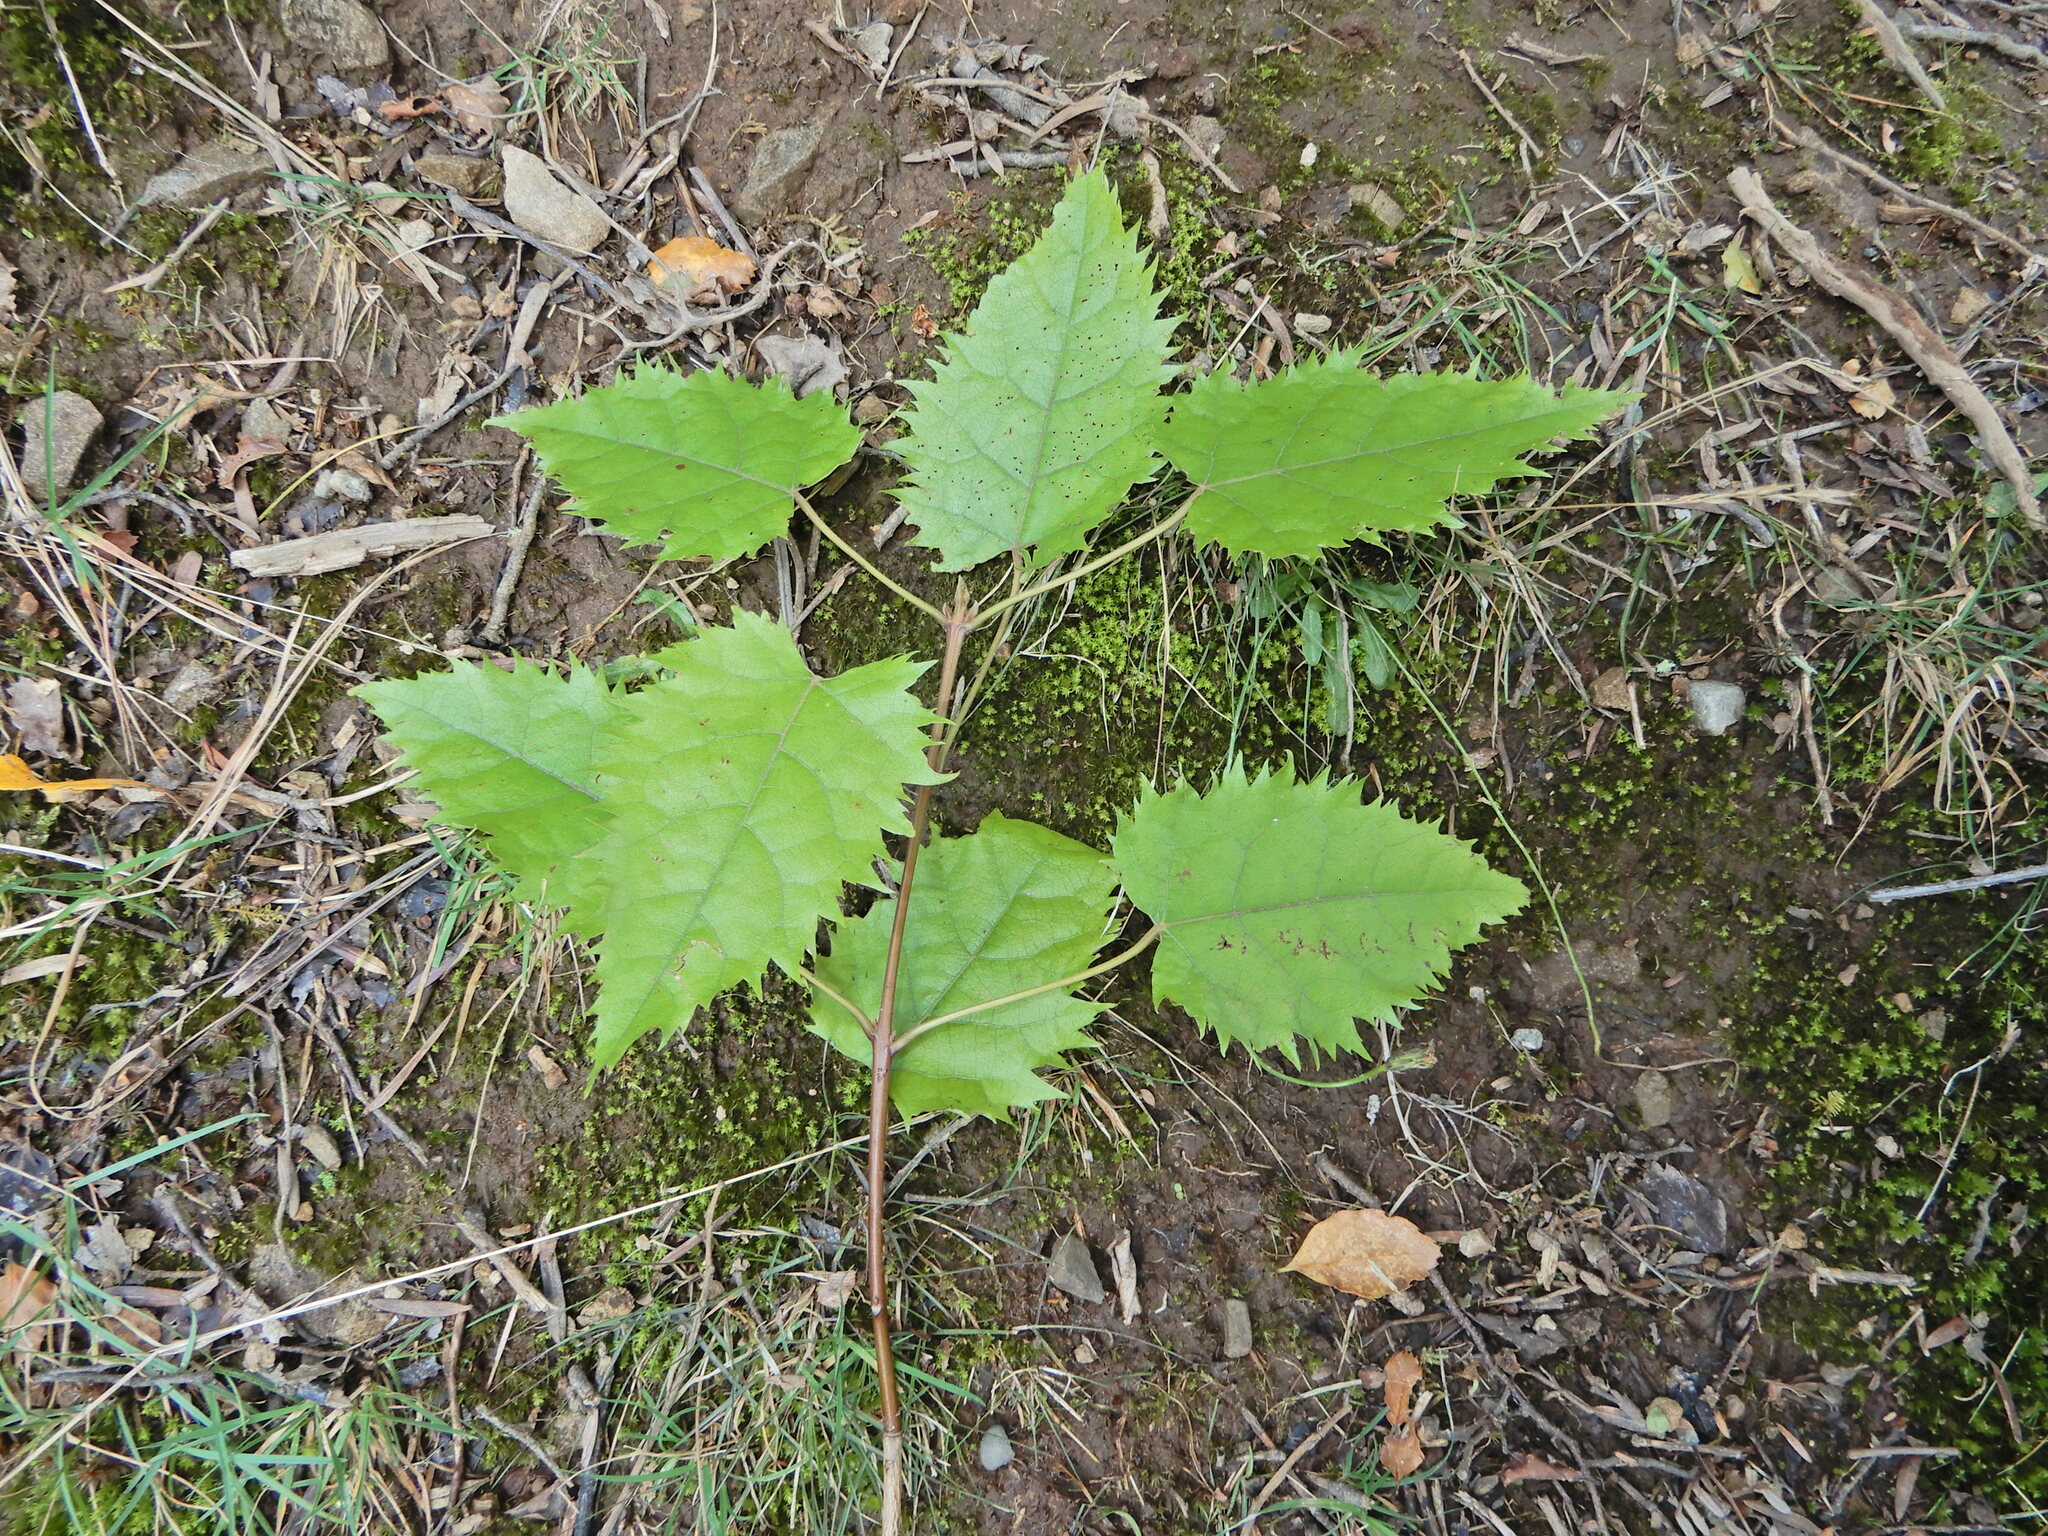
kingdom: Plantae
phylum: Tracheophyta
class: Magnoliopsida
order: Oxalidales
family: Elaeocarpaceae
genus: Aristotelia
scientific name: Aristotelia serrata
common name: New zealand wineberry
